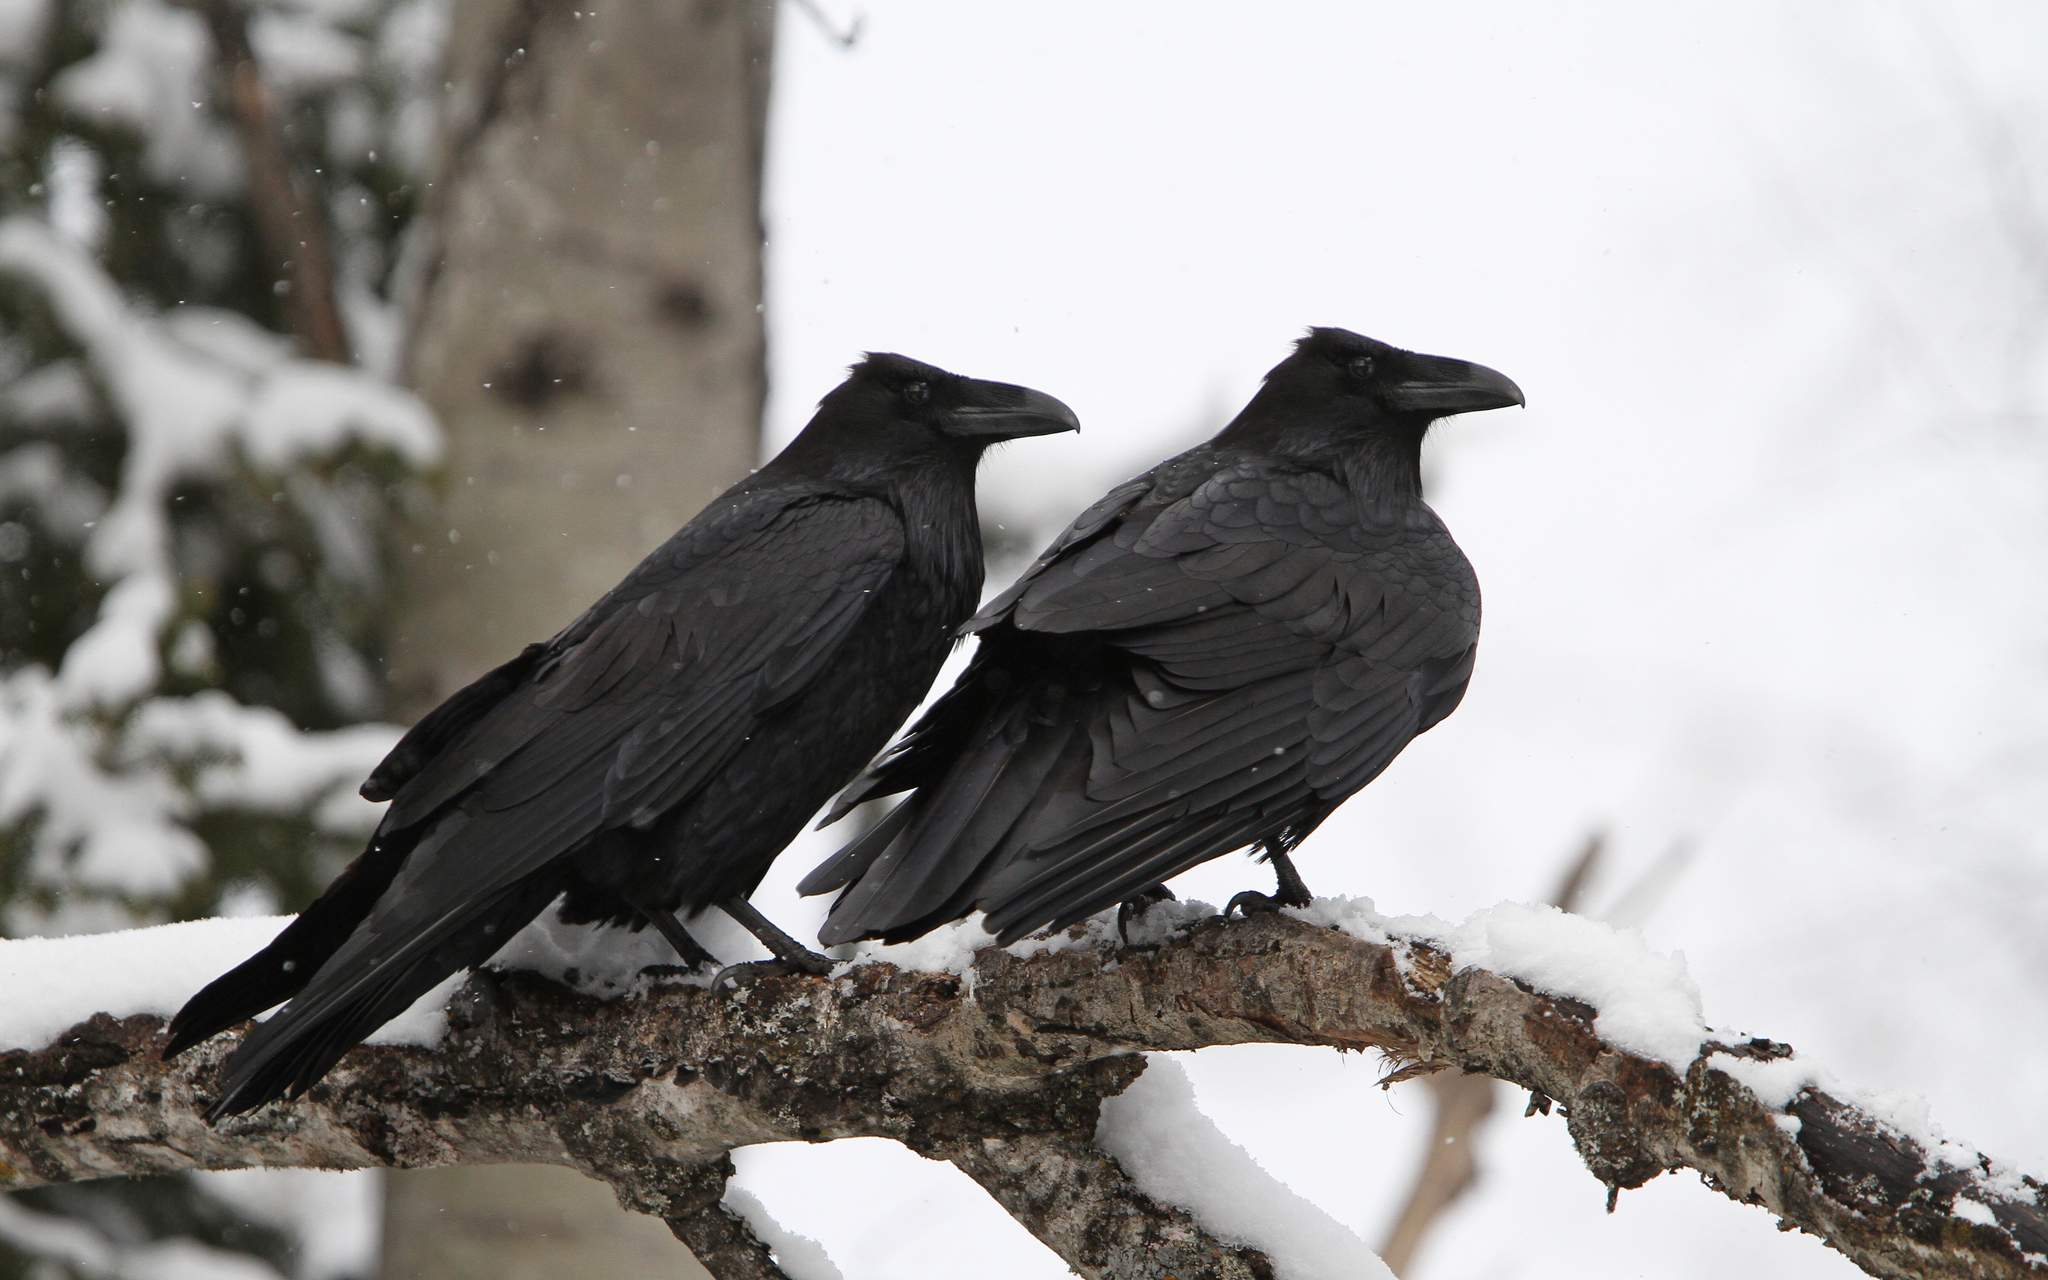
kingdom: Animalia
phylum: Chordata
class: Aves
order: Passeriformes
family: Corvidae
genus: Corvus
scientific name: Corvus corax
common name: Common raven
